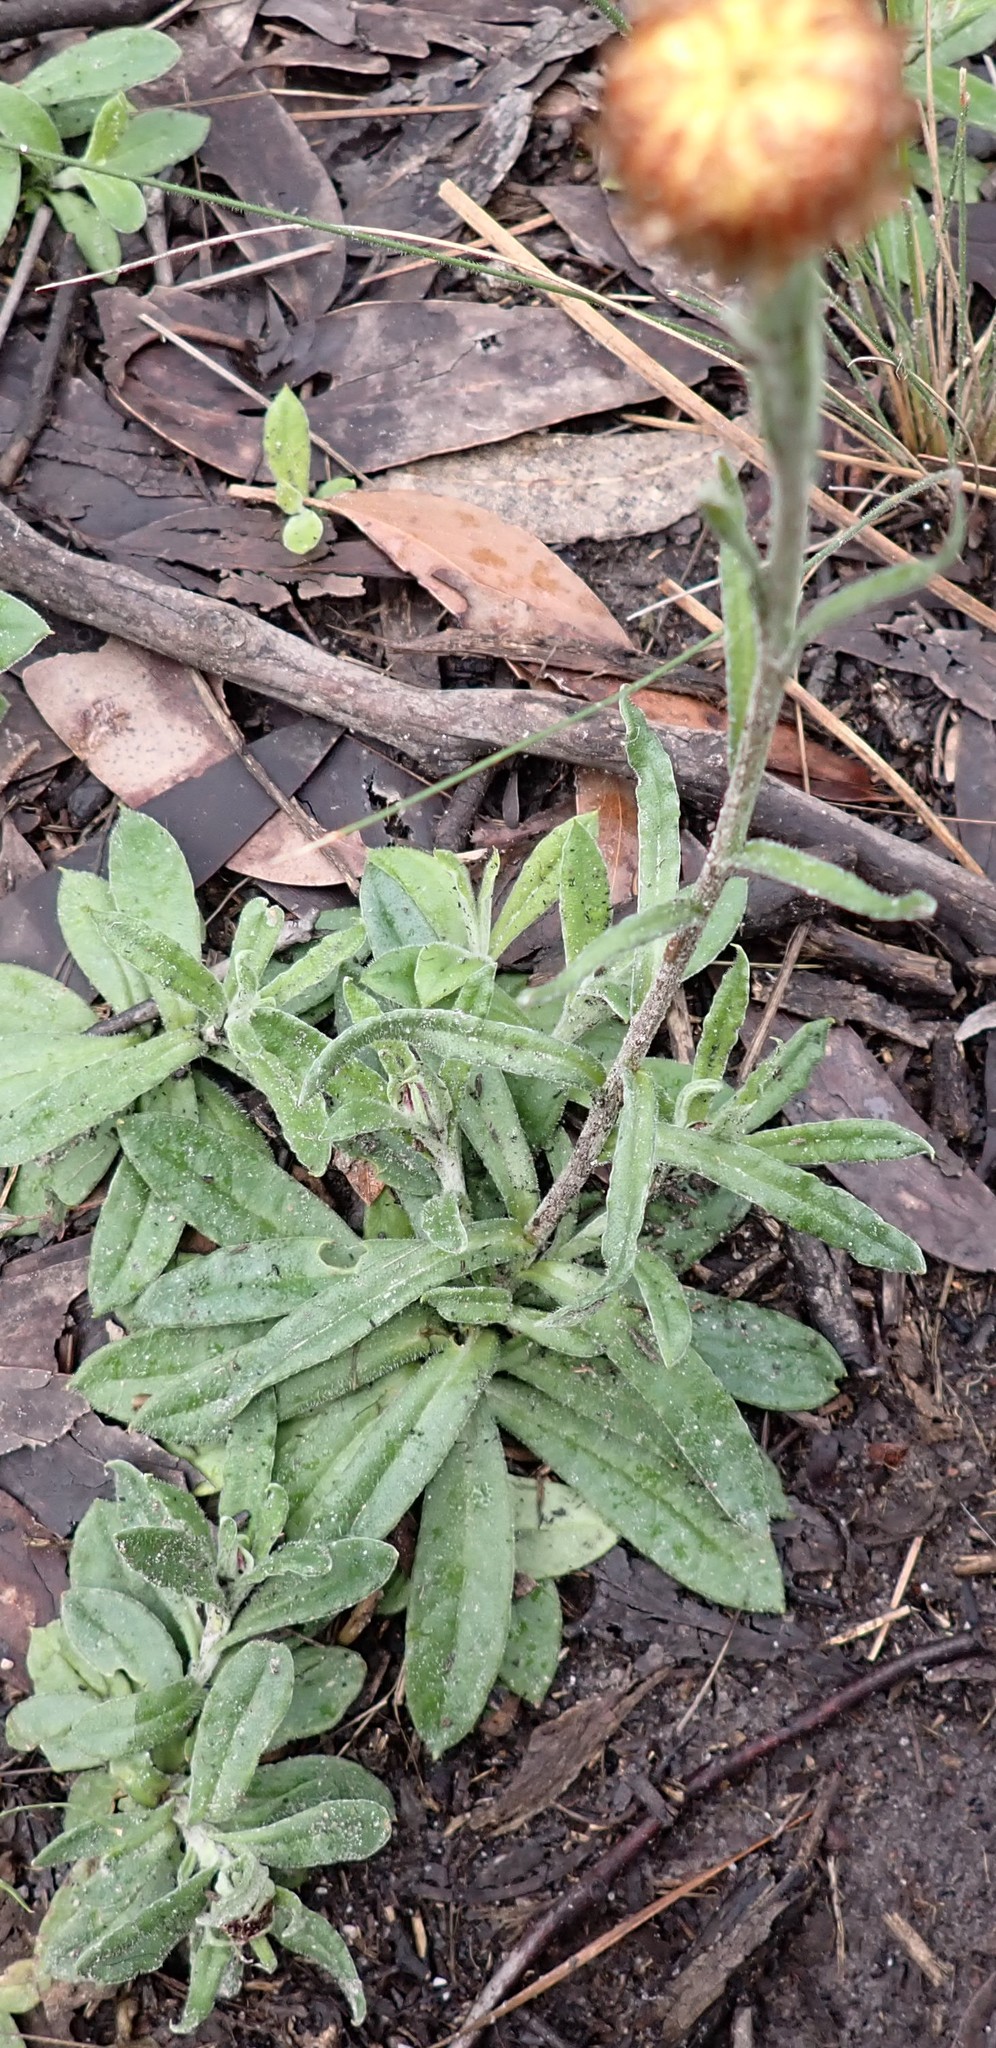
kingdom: Plantae
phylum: Tracheophyta
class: Magnoliopsida
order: Asterales
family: Asteraceae
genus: Coronidium
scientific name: Coronidium scorpioides
